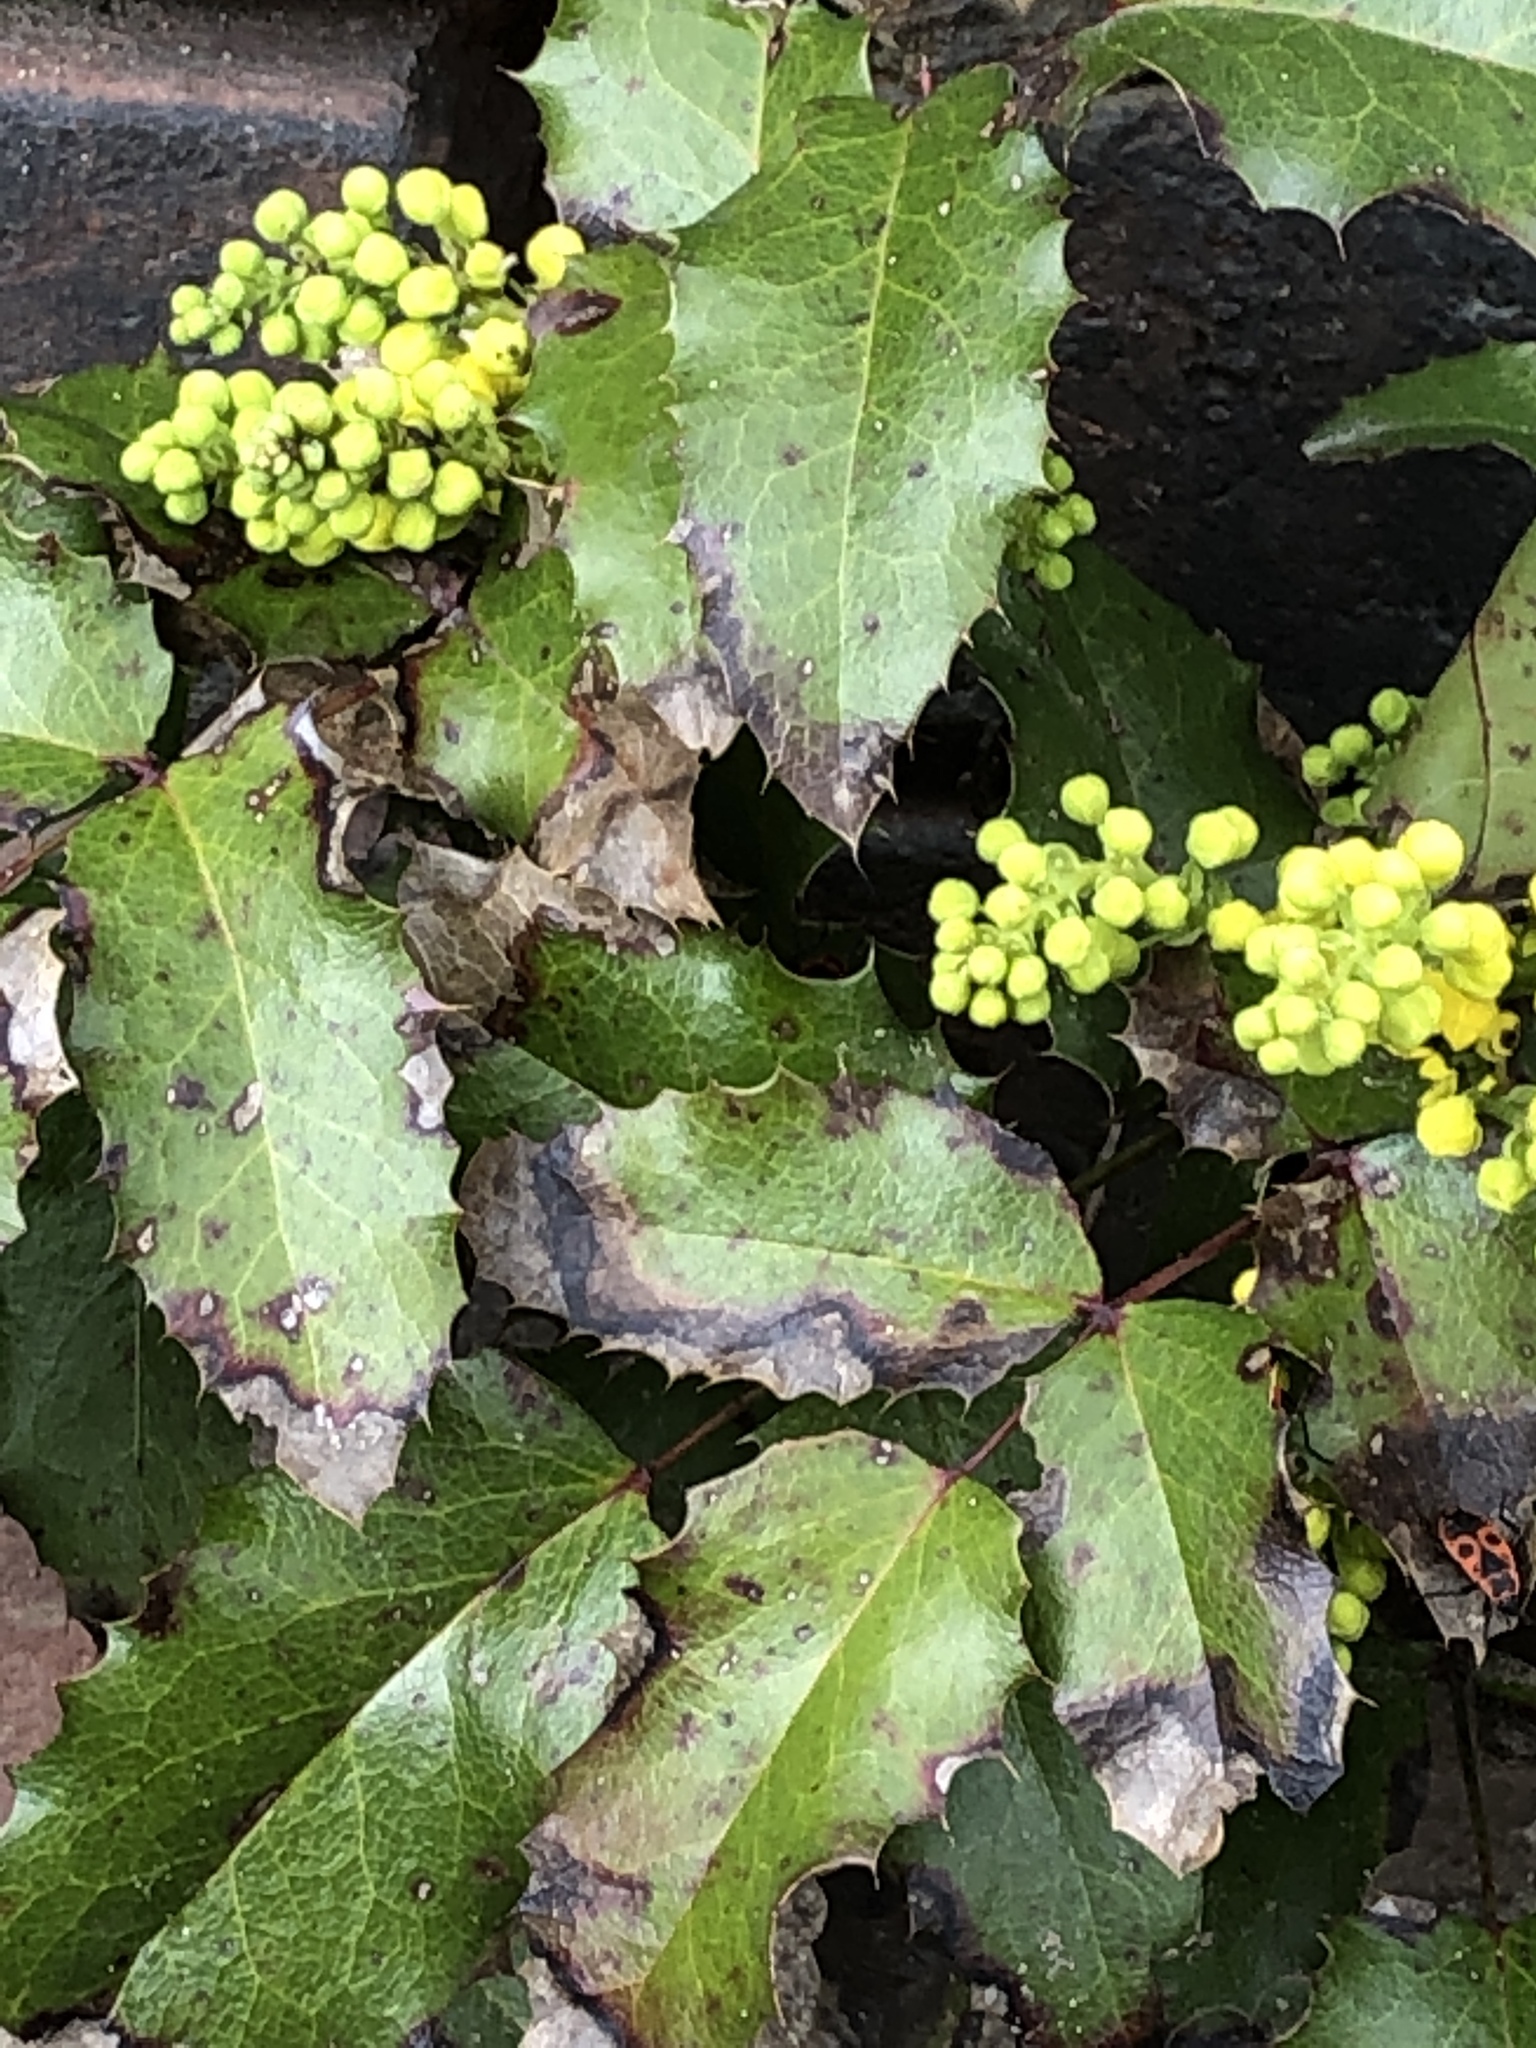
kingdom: Plantae
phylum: Tracheophyta
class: Magnoliopsida
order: Ranunculales
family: Berberidaceae
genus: Mahonia
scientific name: Mahonia aquifolium
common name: Oregon-grape
